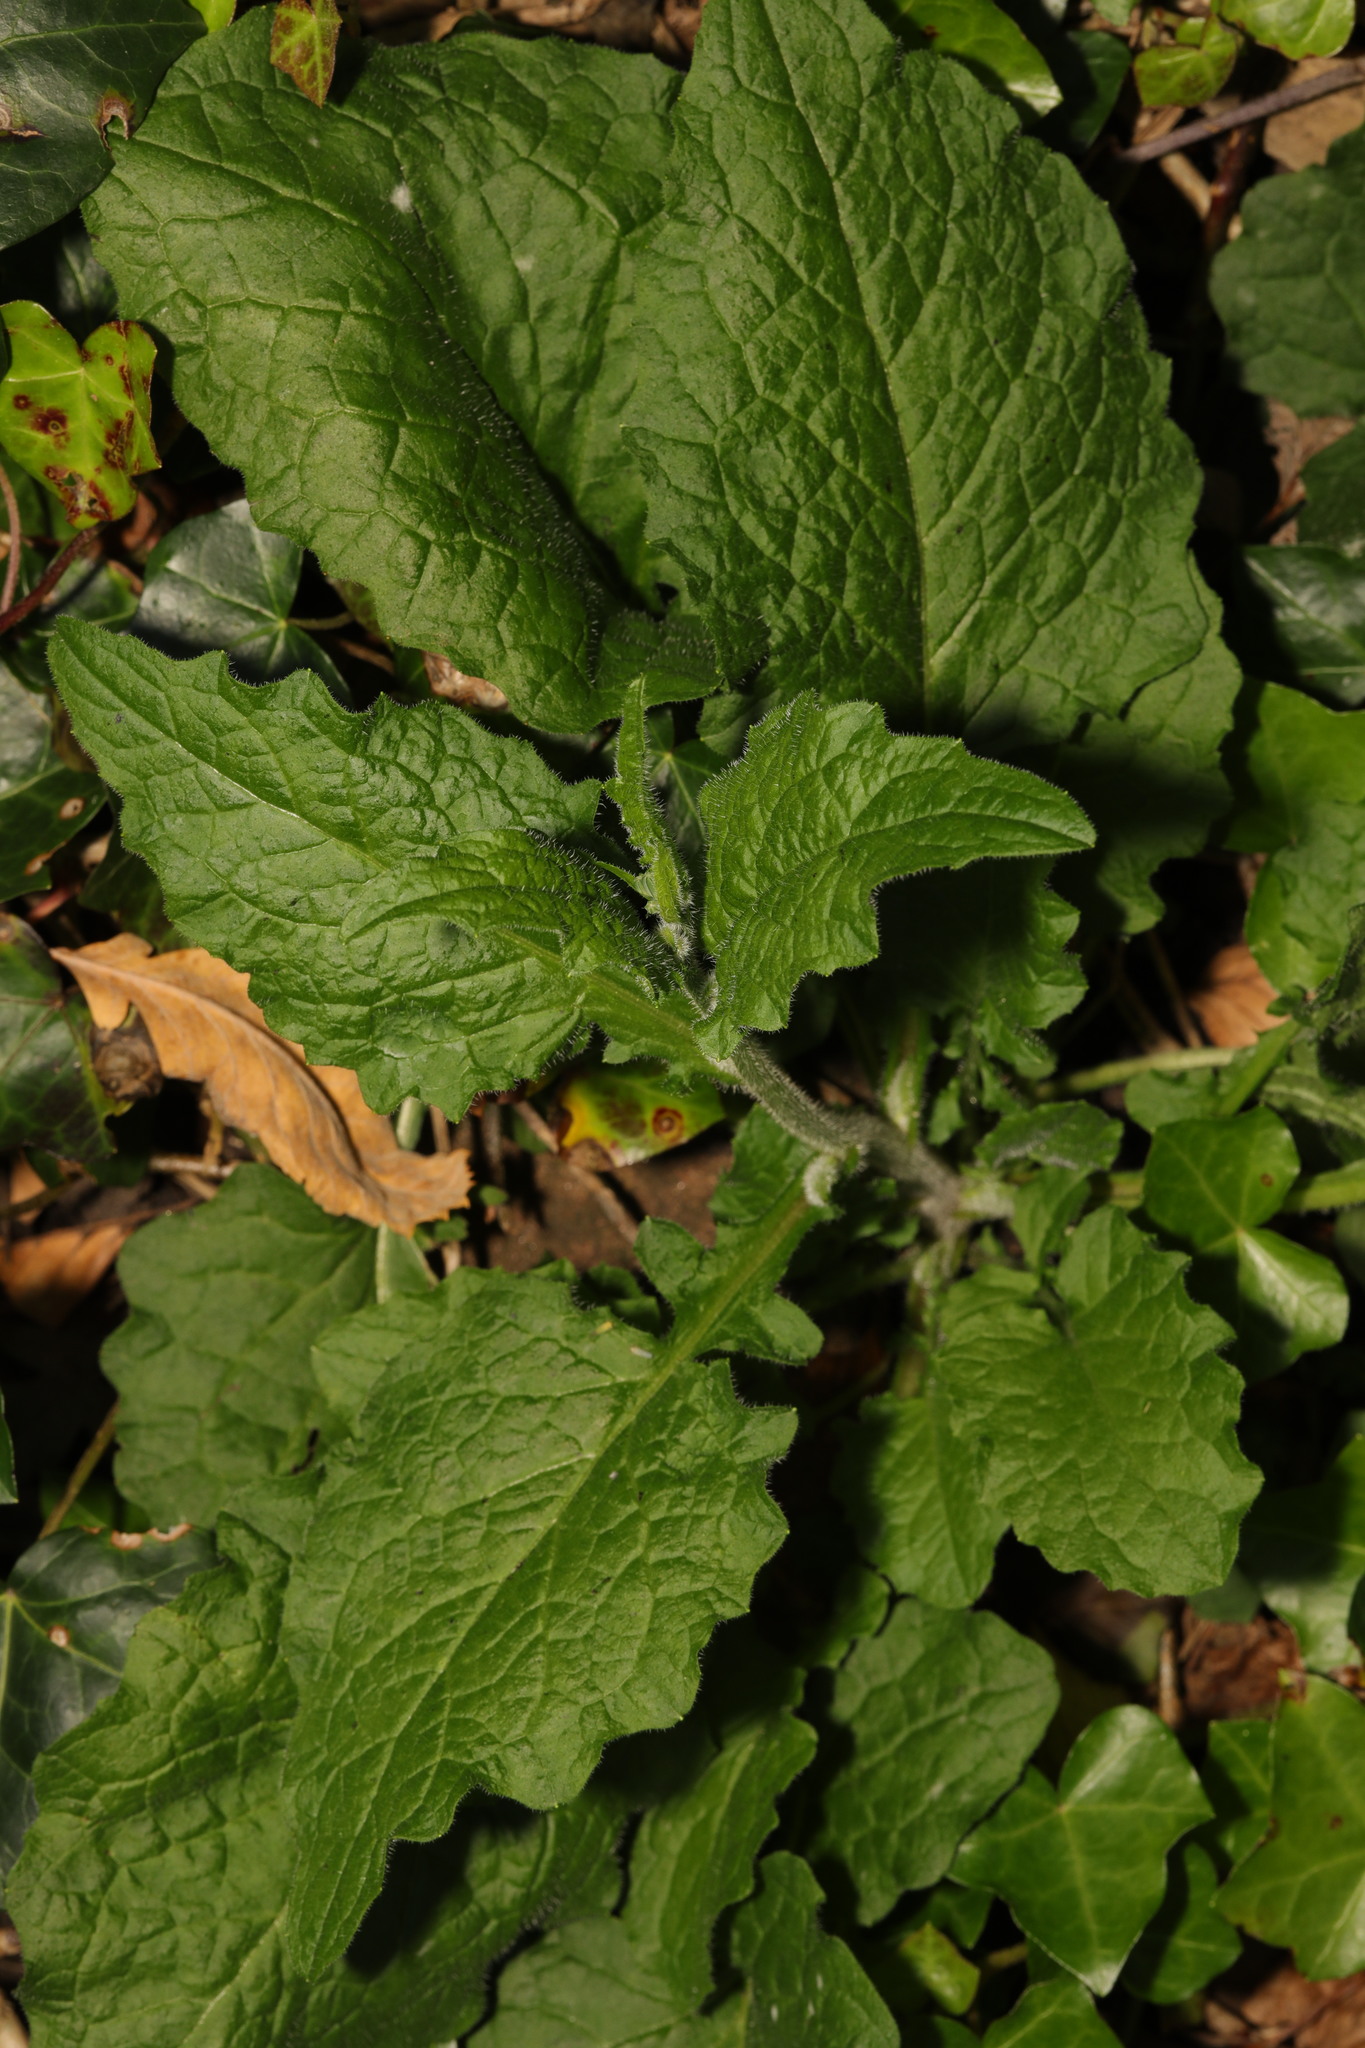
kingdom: Plantae
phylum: Tracheophyta
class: Magnoliopsida
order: Asterales
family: Asteraceae
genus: Lapsana
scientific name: Lapsana communis
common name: Nipplewort
